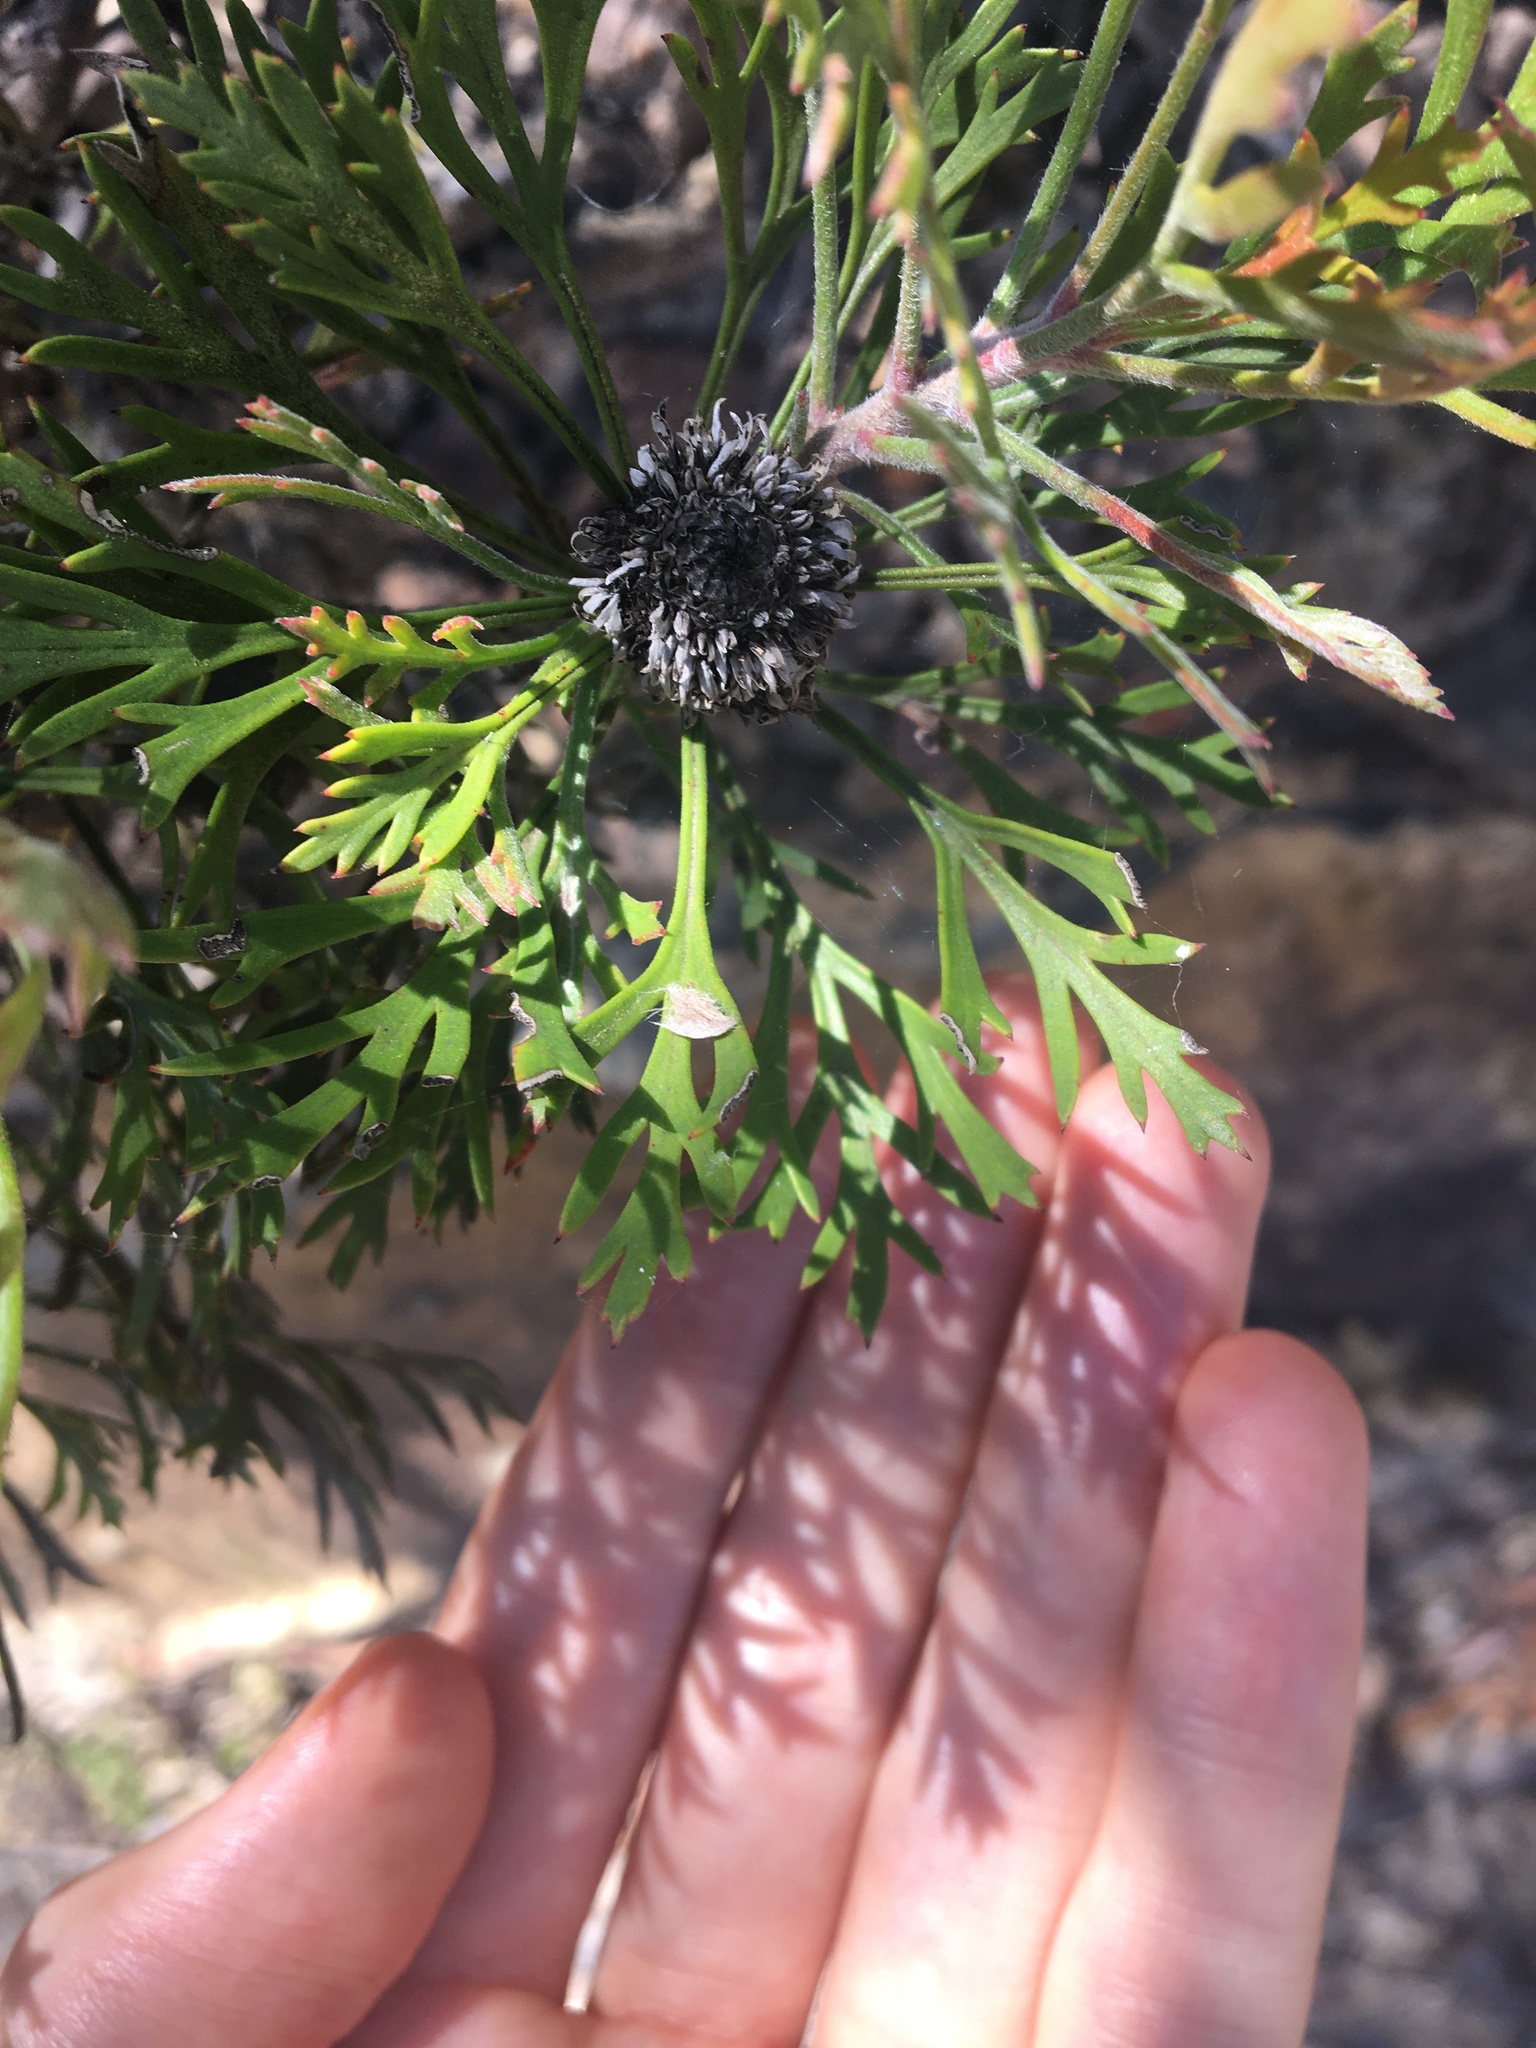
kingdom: Plantae
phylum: Tracheophyta
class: Magnoliopsida
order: Proteales
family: Proteaceae
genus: Isopogon
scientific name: Isopogon anemonifolius
